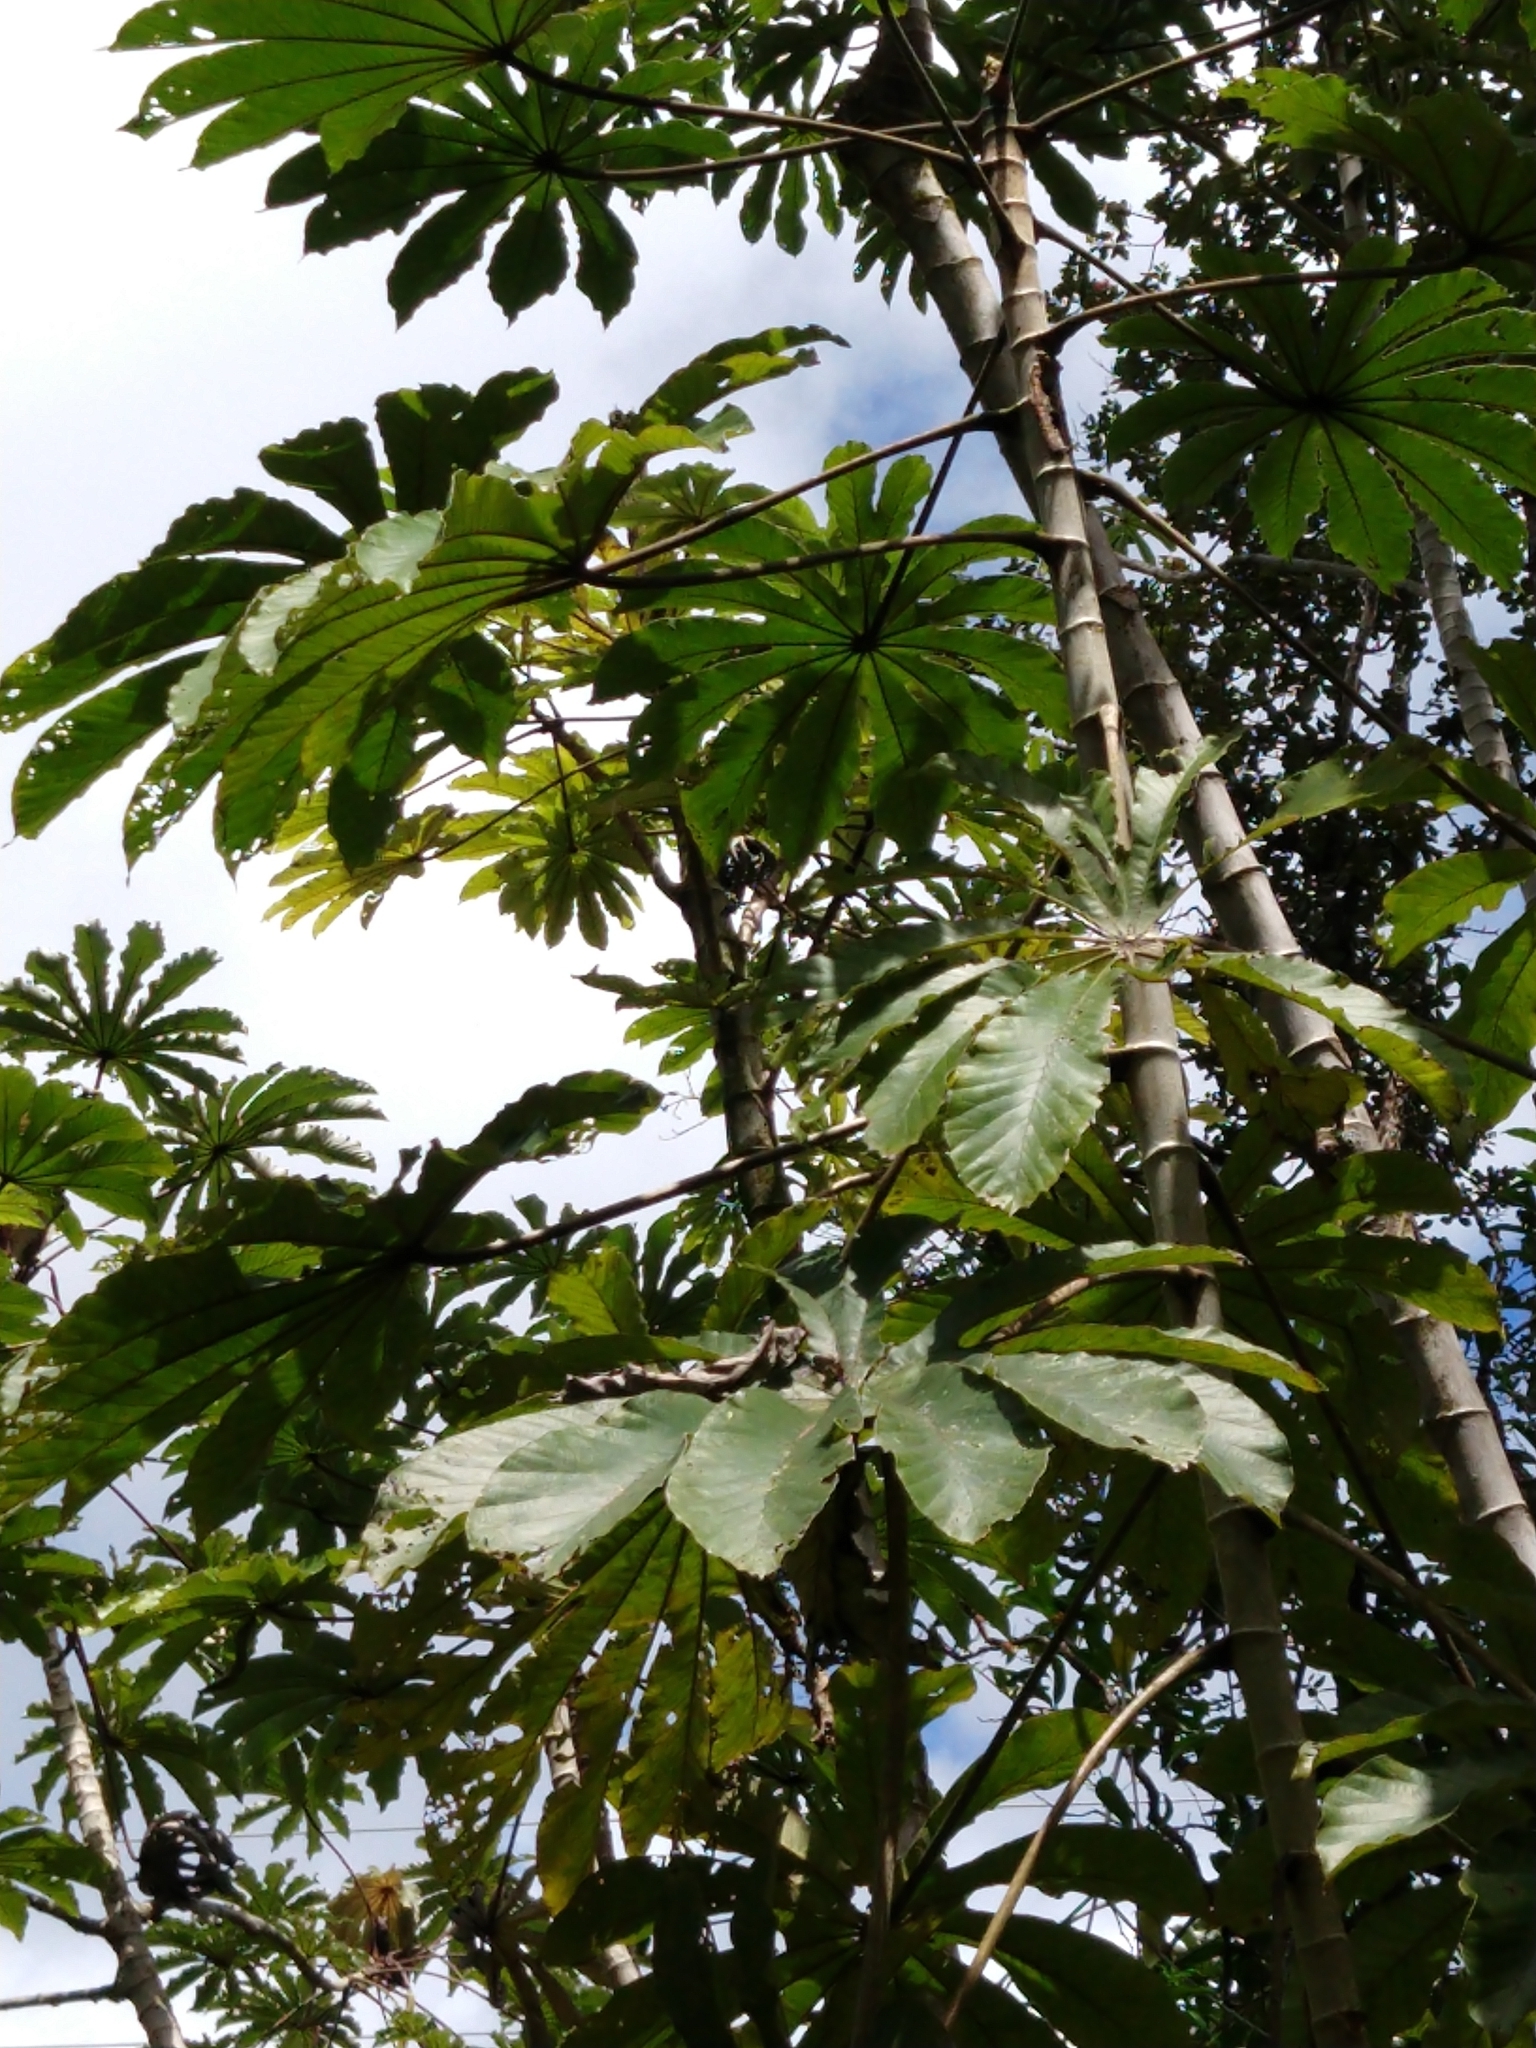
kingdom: Plantae
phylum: Tracheophyta
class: Magnoliopsida
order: Rosales
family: Urticaceae
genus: Cecropia
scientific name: Cecropia obtusifolia
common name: Trumpet tree
